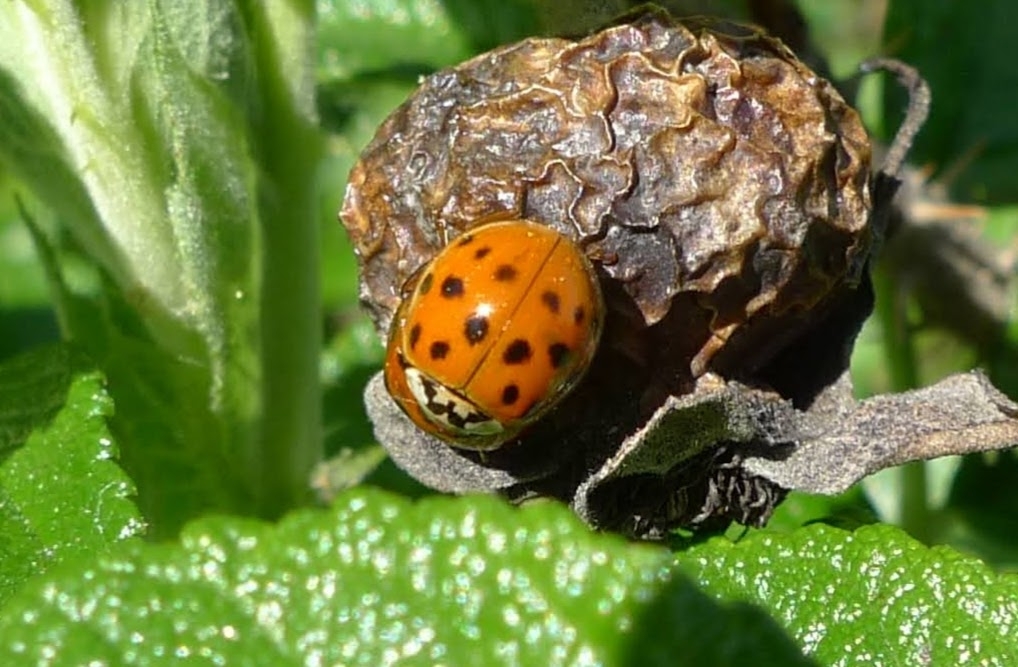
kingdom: Animalia
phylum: Arthropoda
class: Insecta
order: Coleoptera
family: Coccinellidae
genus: Harmonia
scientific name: Harmonia axyridis
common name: Harlequin ladybird
